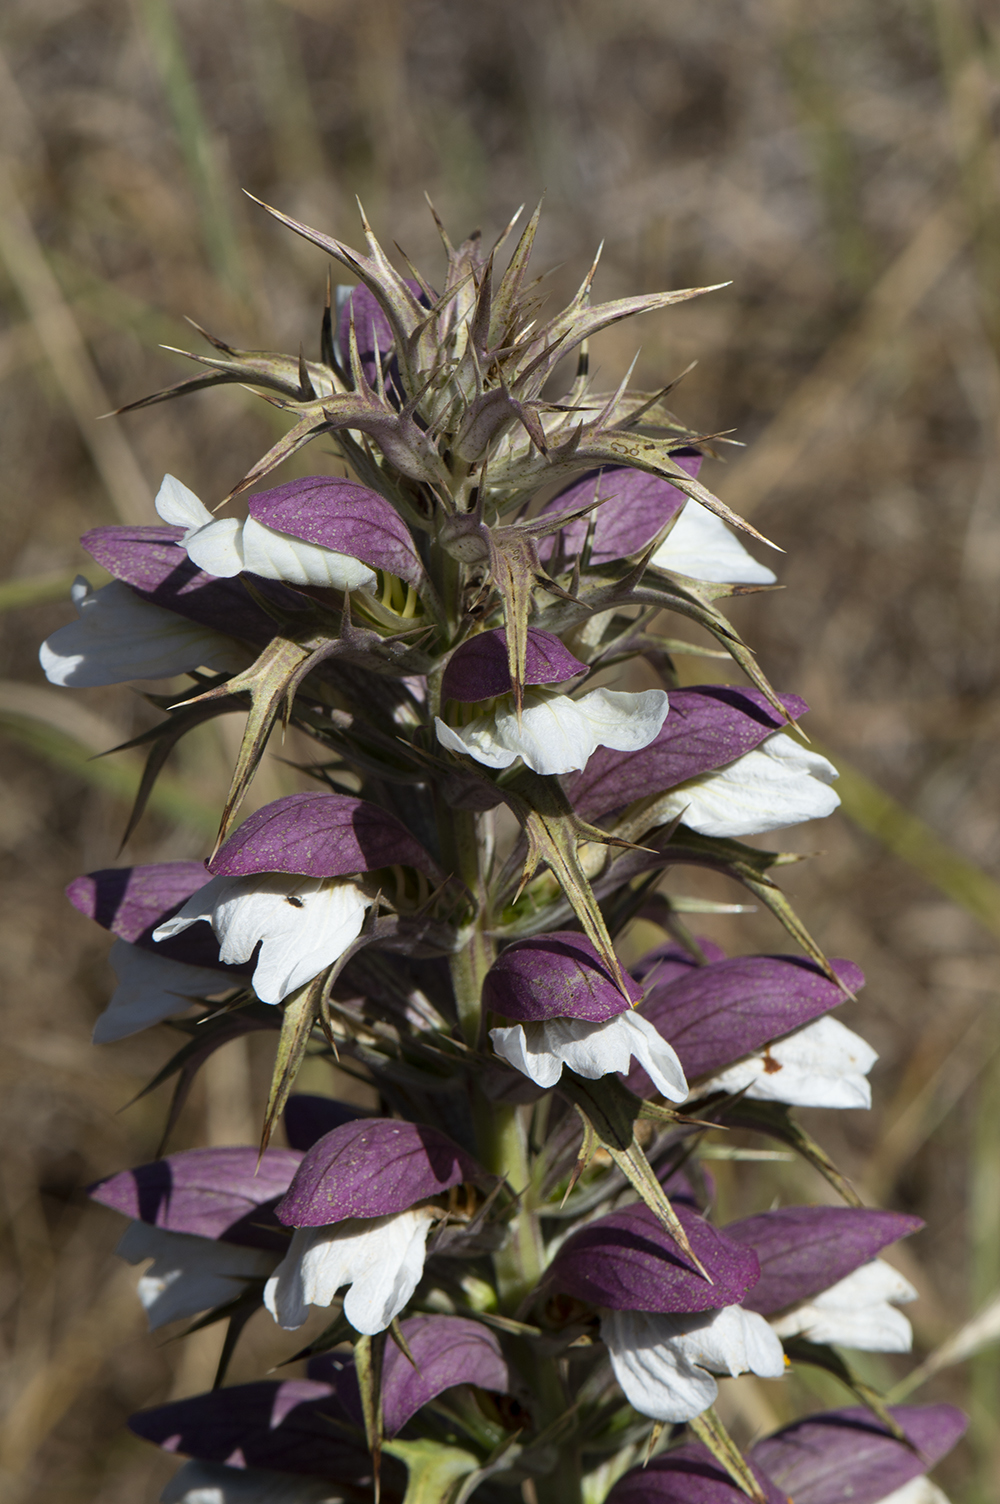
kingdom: Plantae
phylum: Tracheophyta
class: Magnoliopsida
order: Lamiales
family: Acanthaceae
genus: Acanthus
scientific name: Acanthus spinosus
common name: Spiny bear's-breech
